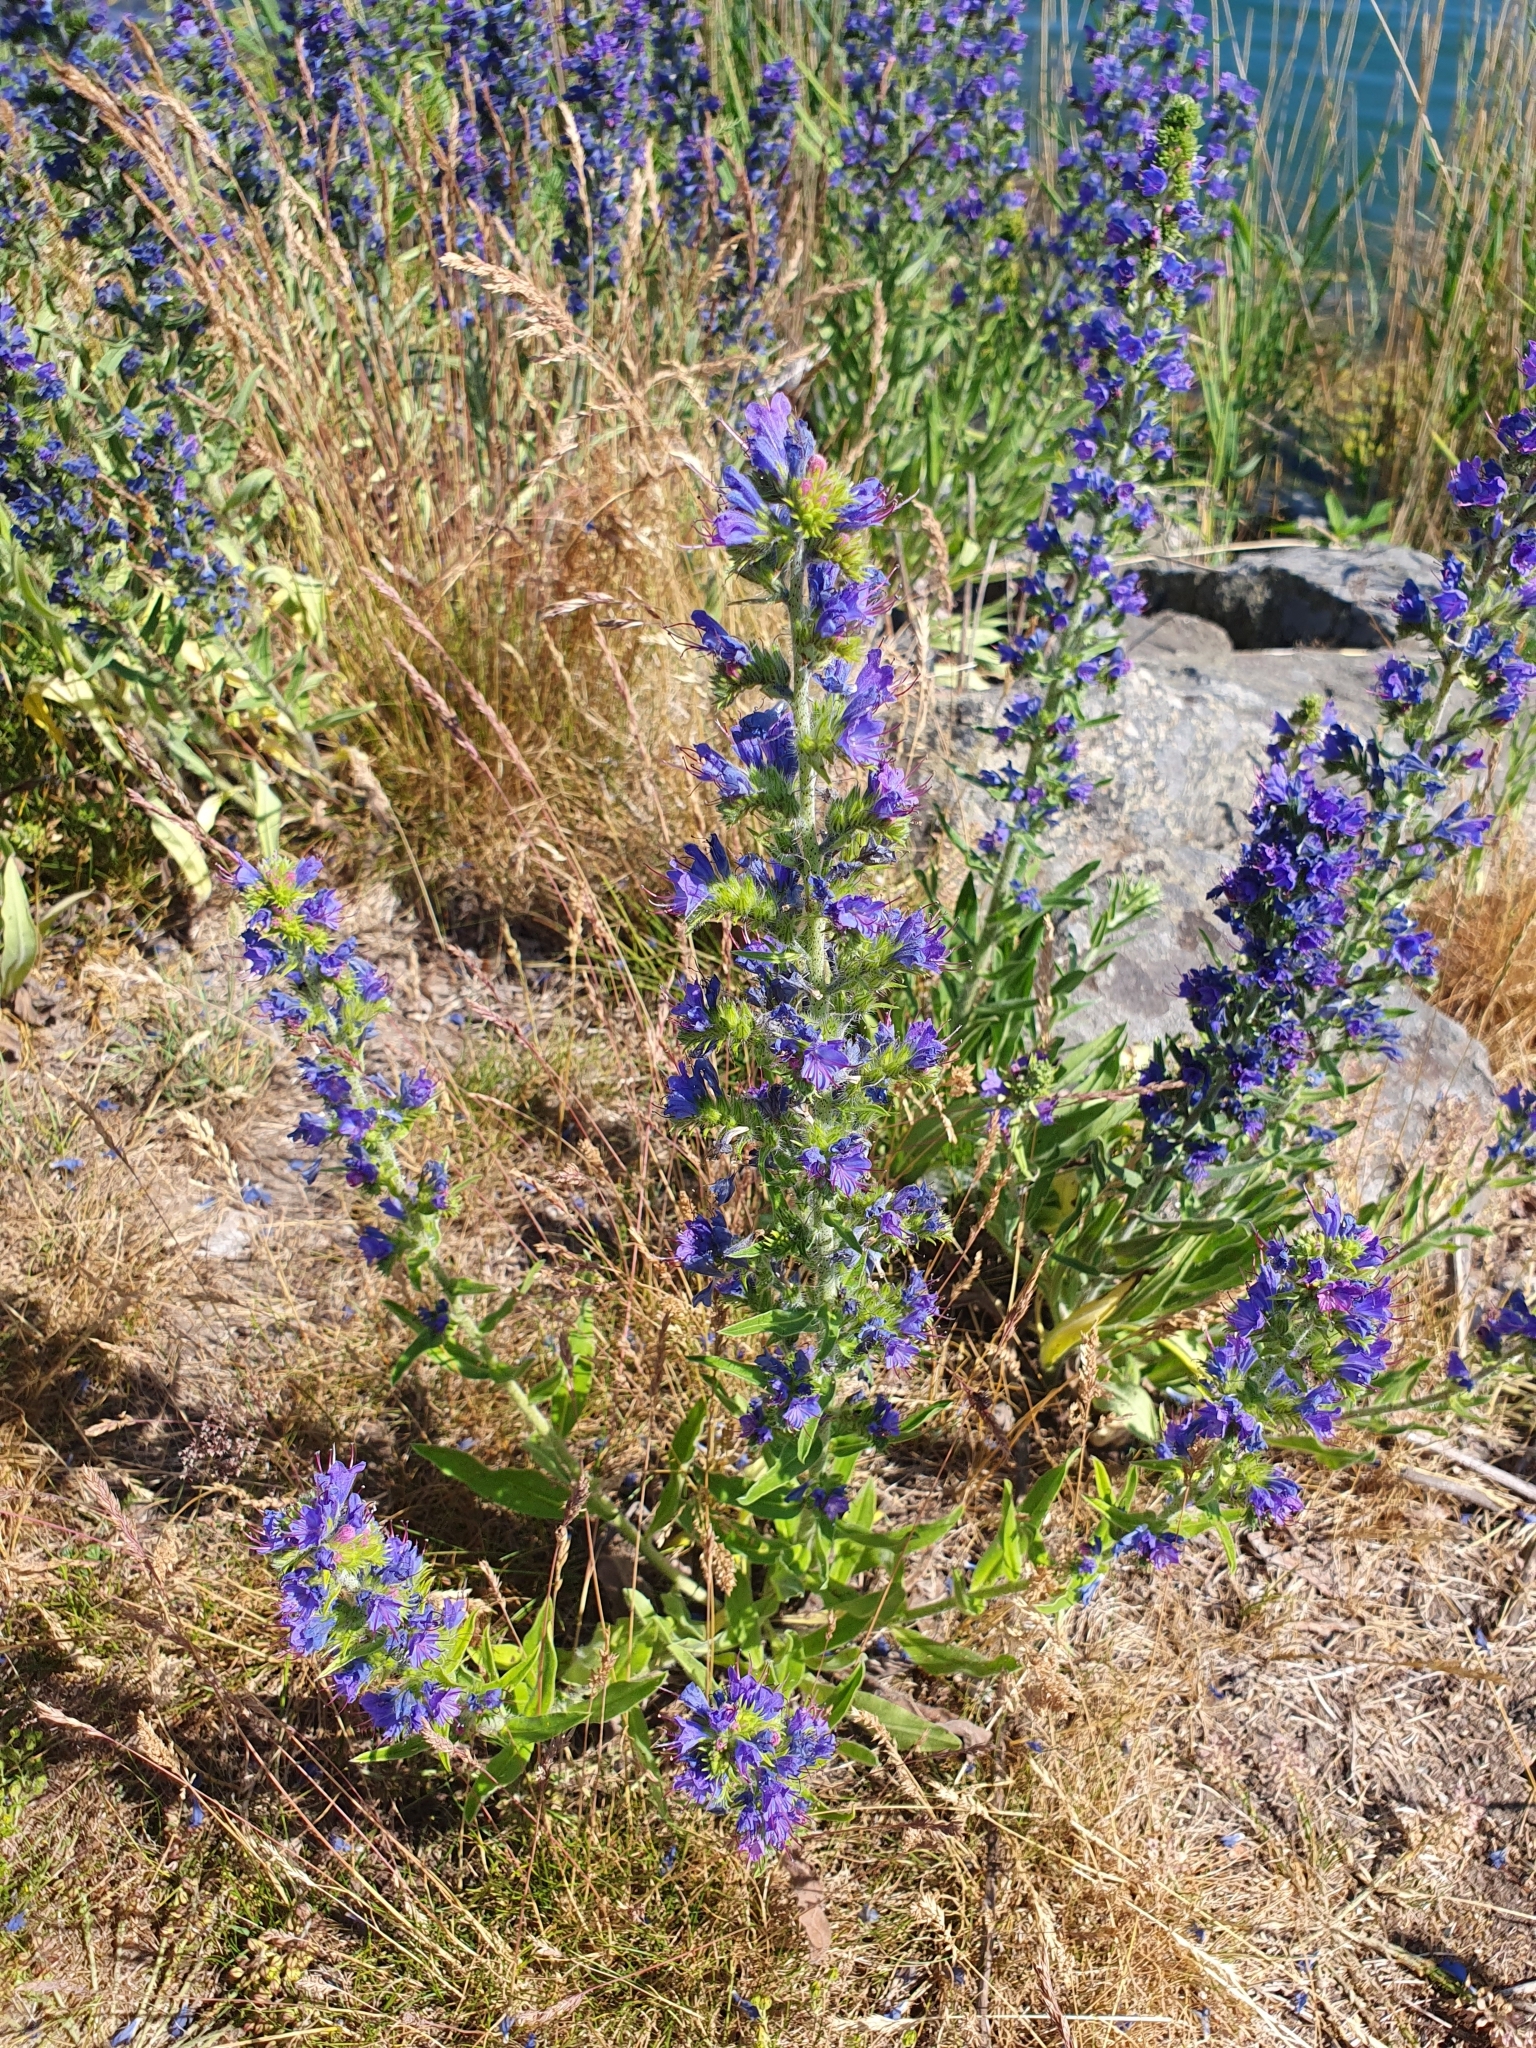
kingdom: Plantae
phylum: Tracheophyta
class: Magnoliopsida
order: Boraginales
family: Boraginaceae
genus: Echium
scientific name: Echium vulgare
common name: Common viper's bugloss
